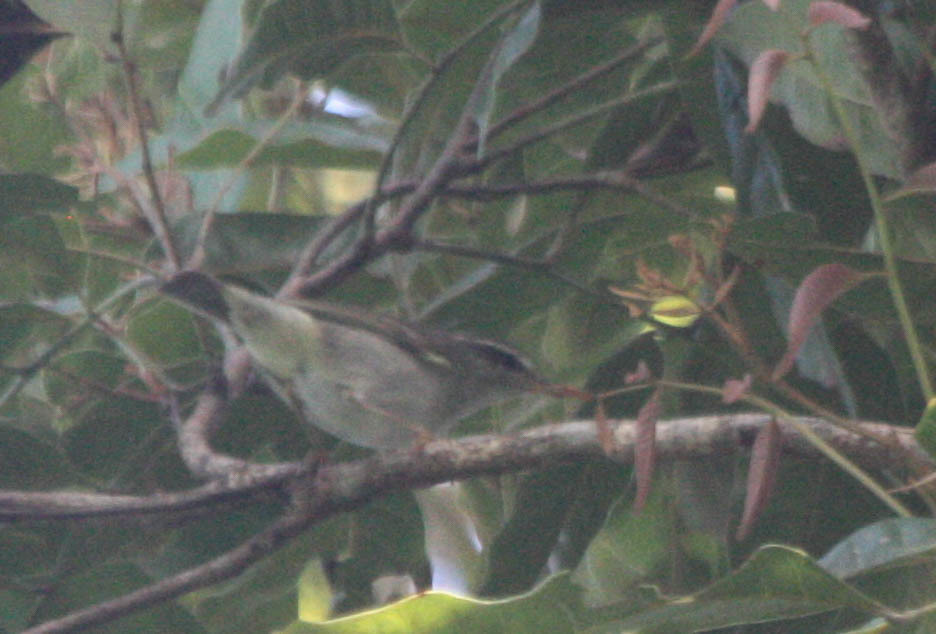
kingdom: Animalia
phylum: Chordata
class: Aves
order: Passeriformes
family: Phylloscopidae
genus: Phylloscopus
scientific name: Phylloscopus borealis
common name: Arctic warbler
